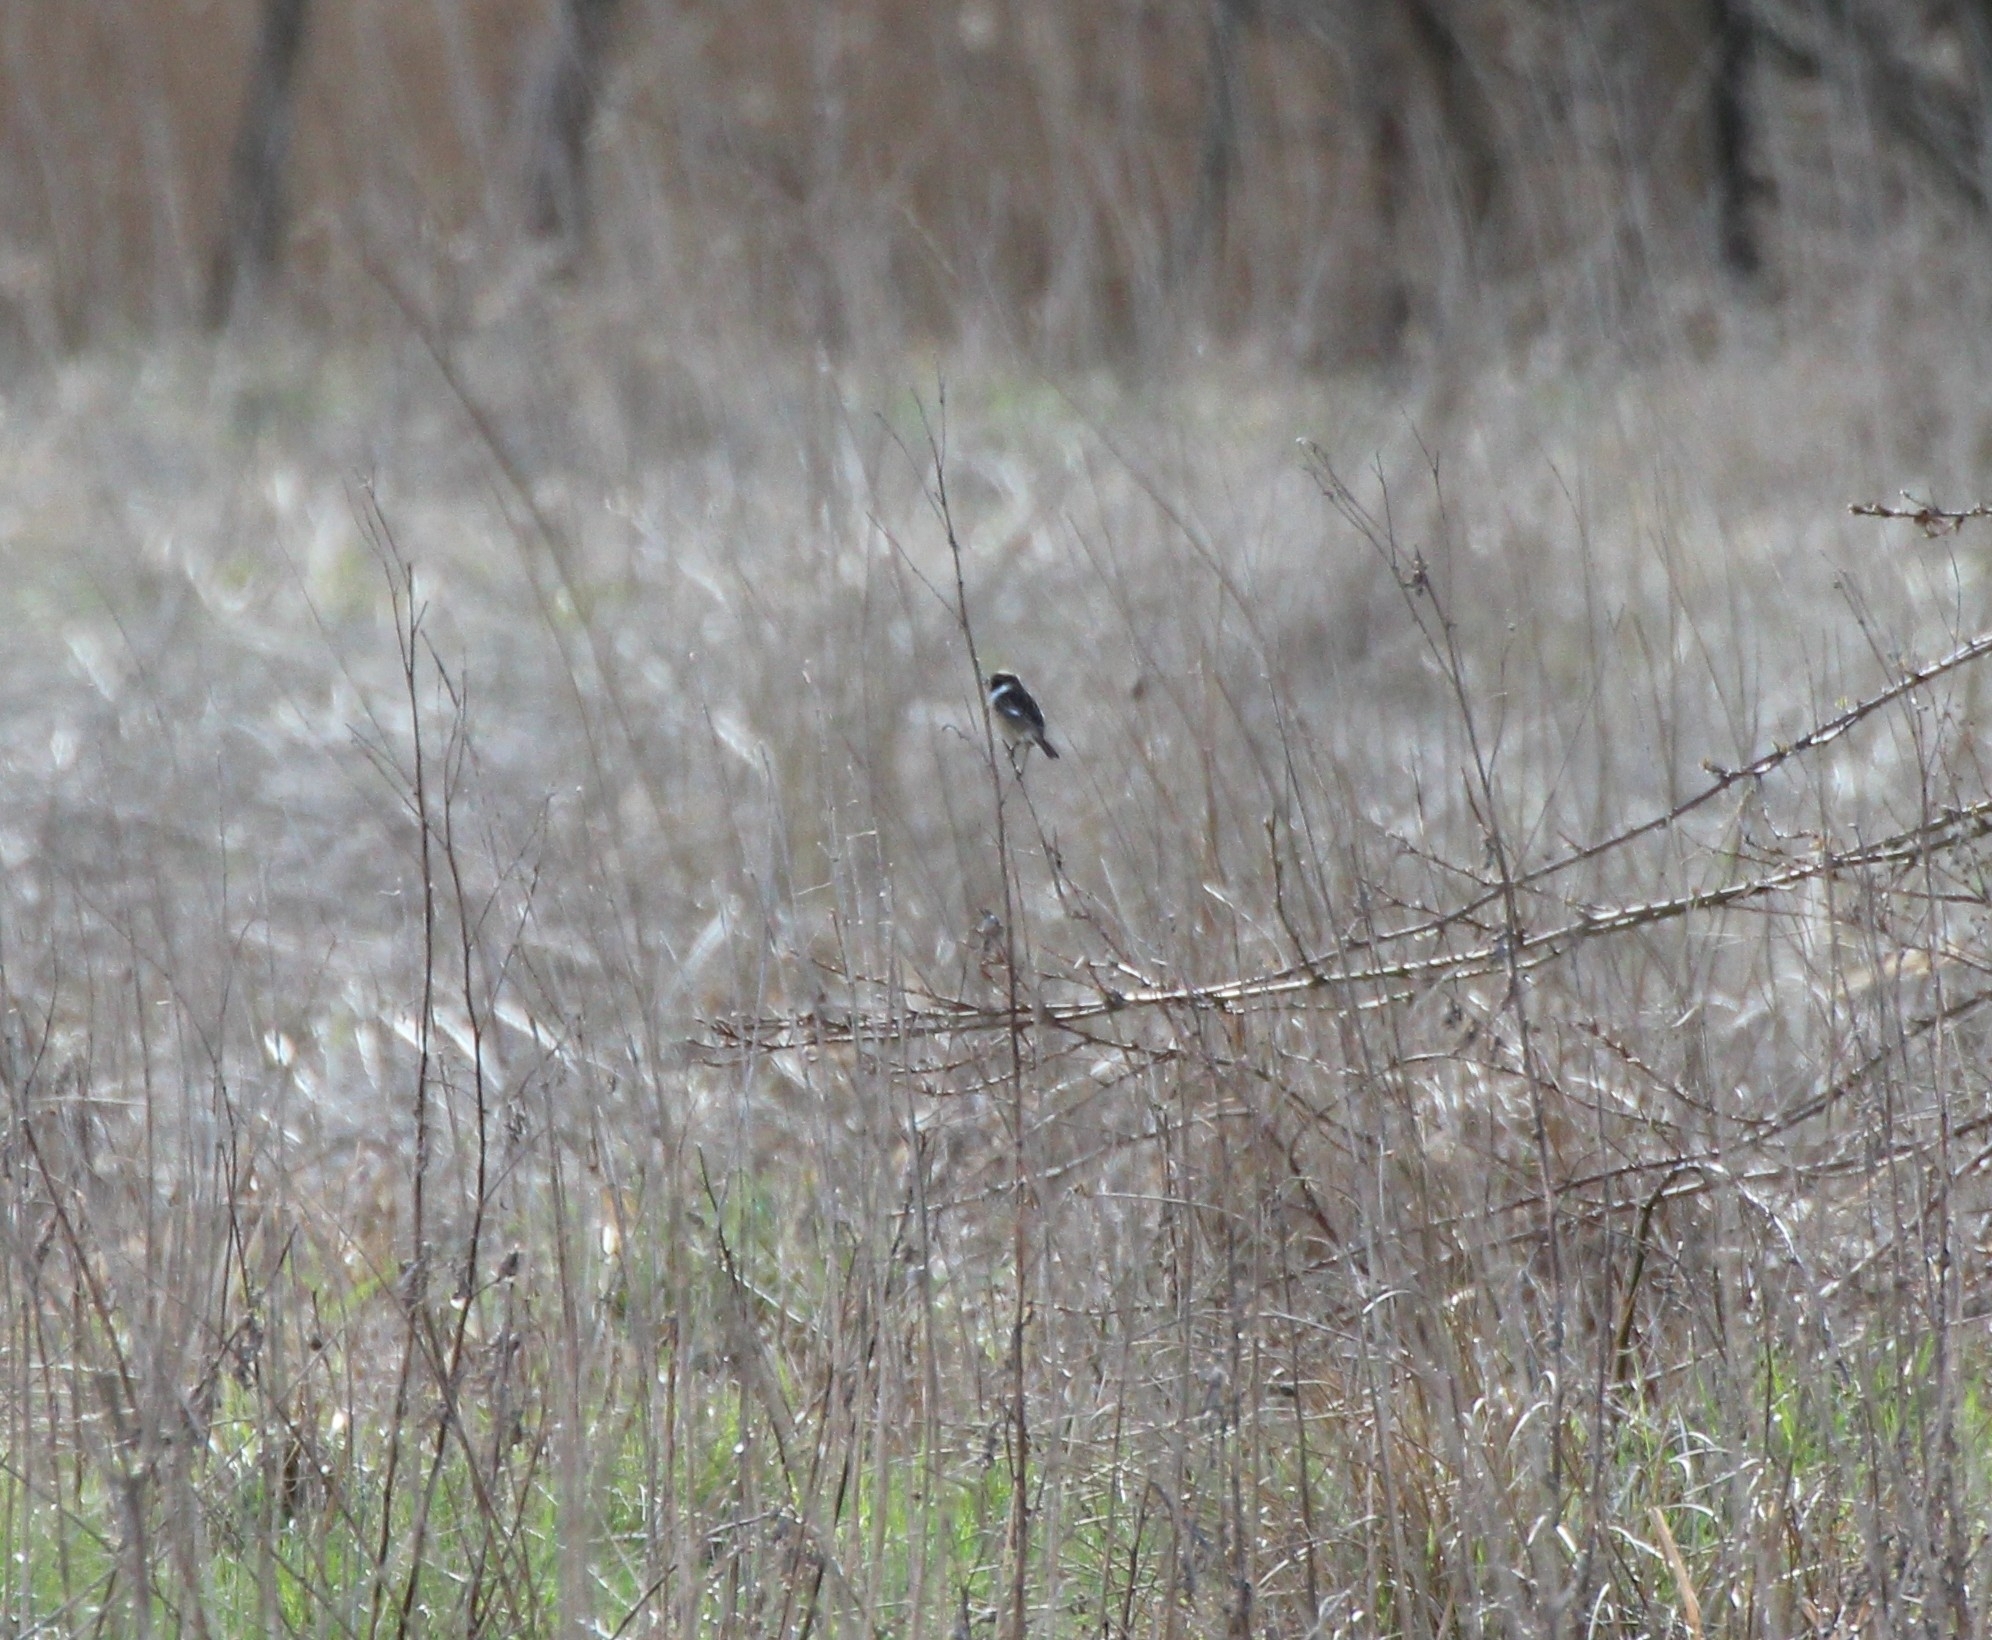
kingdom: Animalia
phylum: Chordata
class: Aves
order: Passeriformes
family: Muscicapidae
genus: Saxicola
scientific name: Saxicola rubicola
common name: European stonechat
